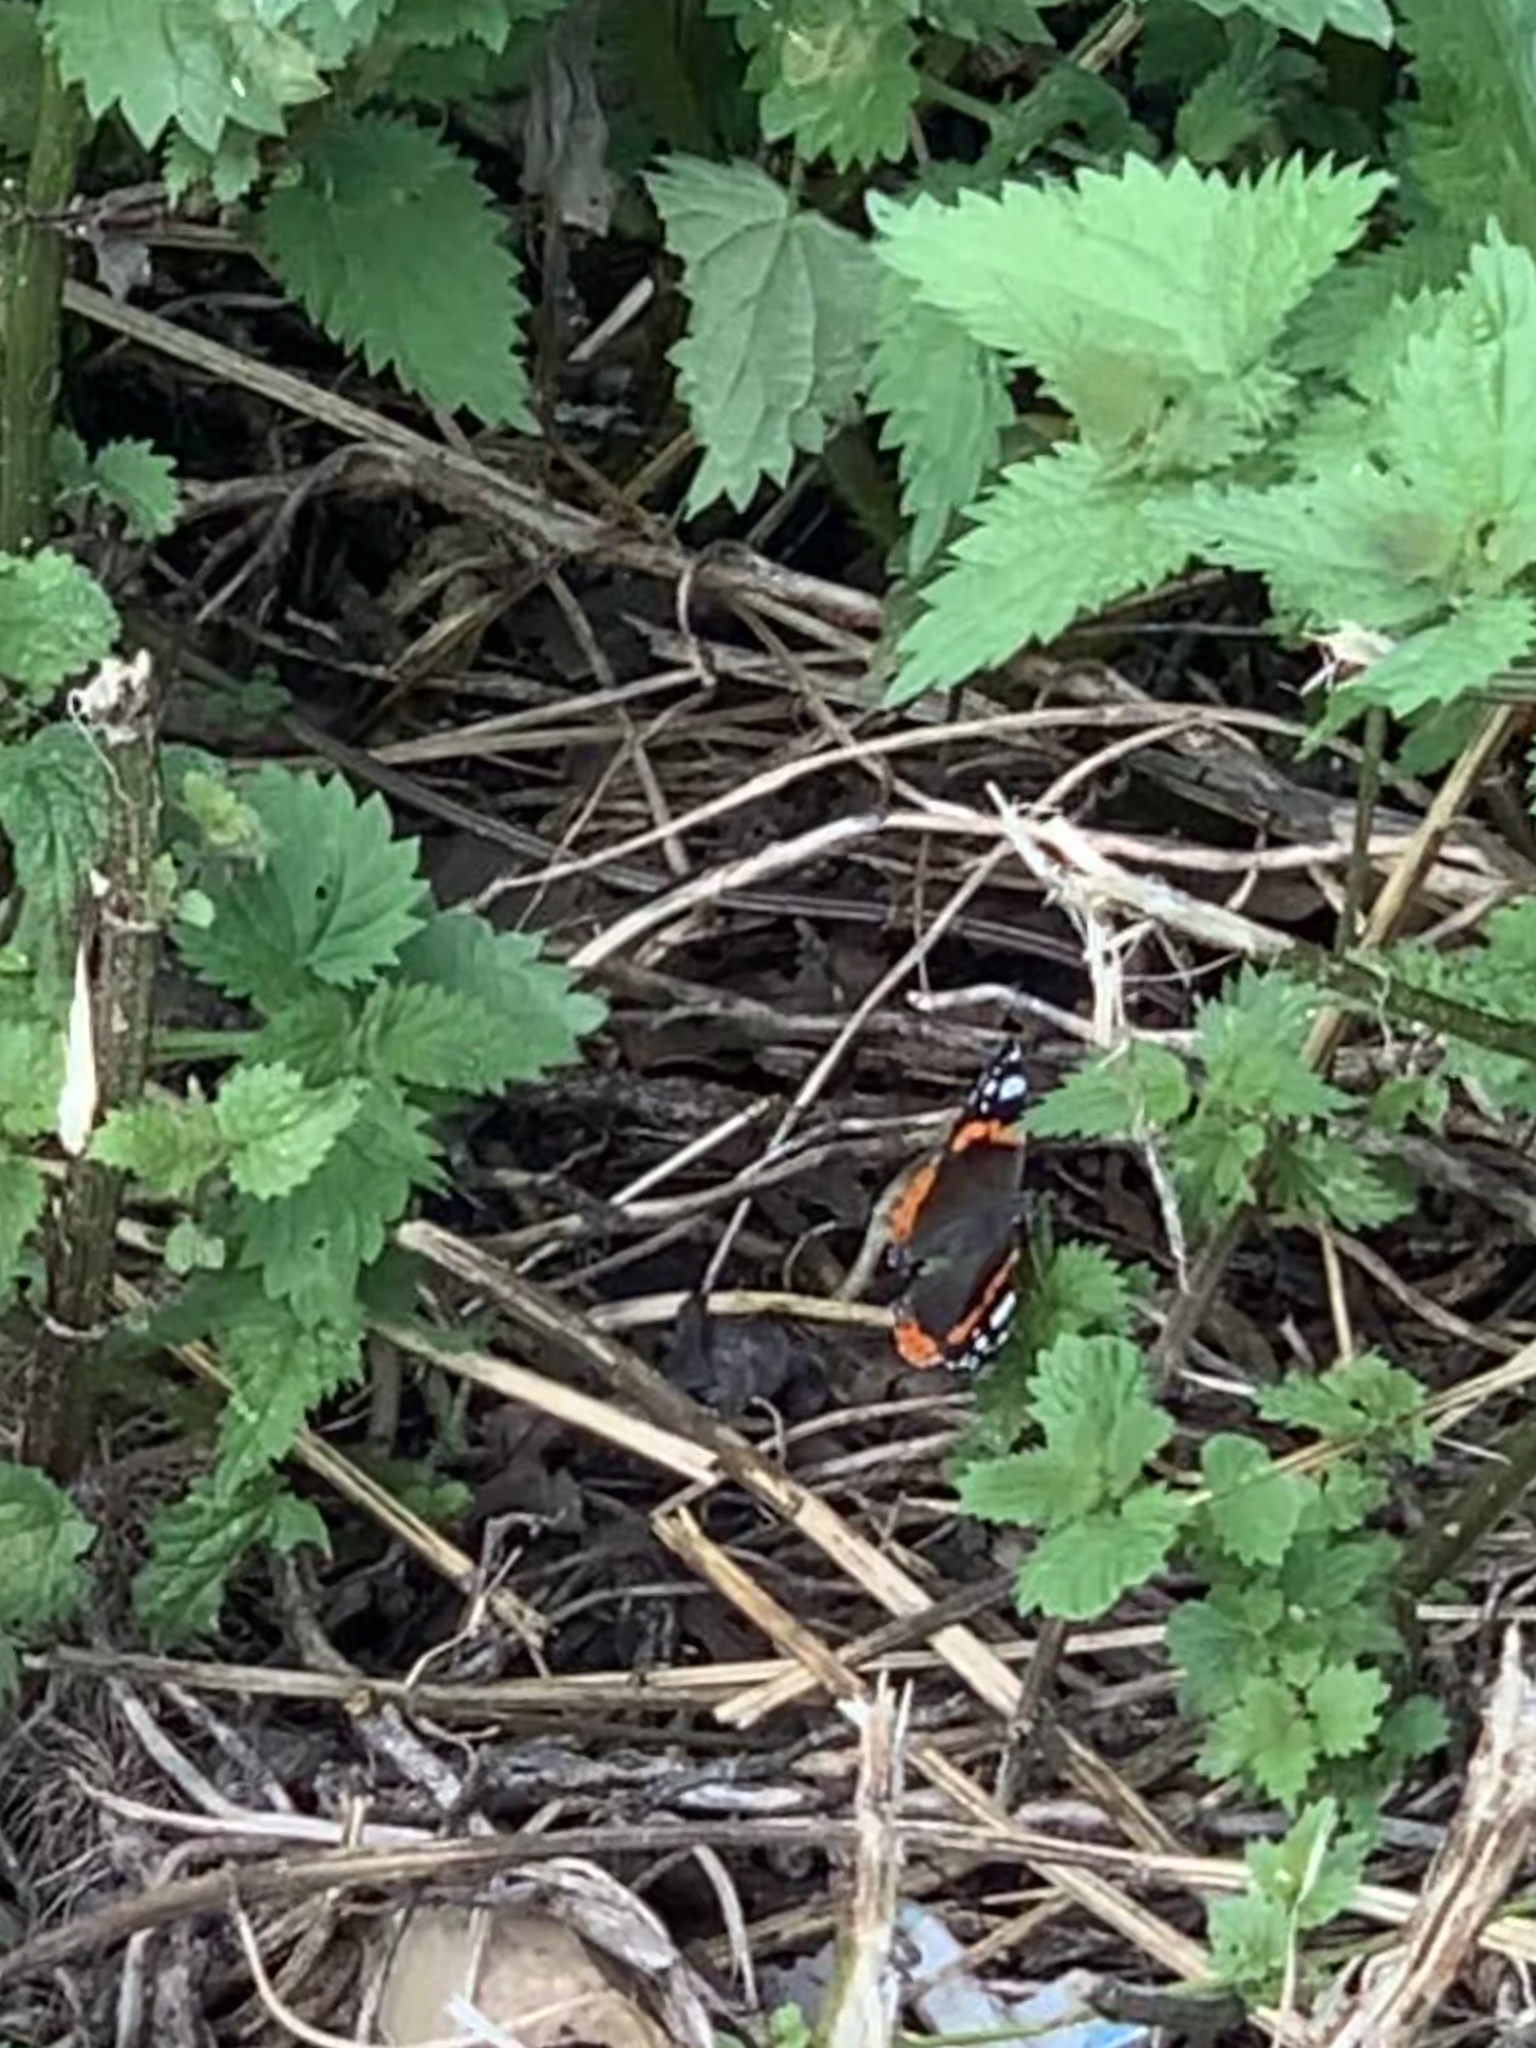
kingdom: Animalia
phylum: Arthropoda
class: Insecta
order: Lepidoptera
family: Nymphalidae
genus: Vanessa
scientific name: Vanessa atalanta
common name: Red admiral
